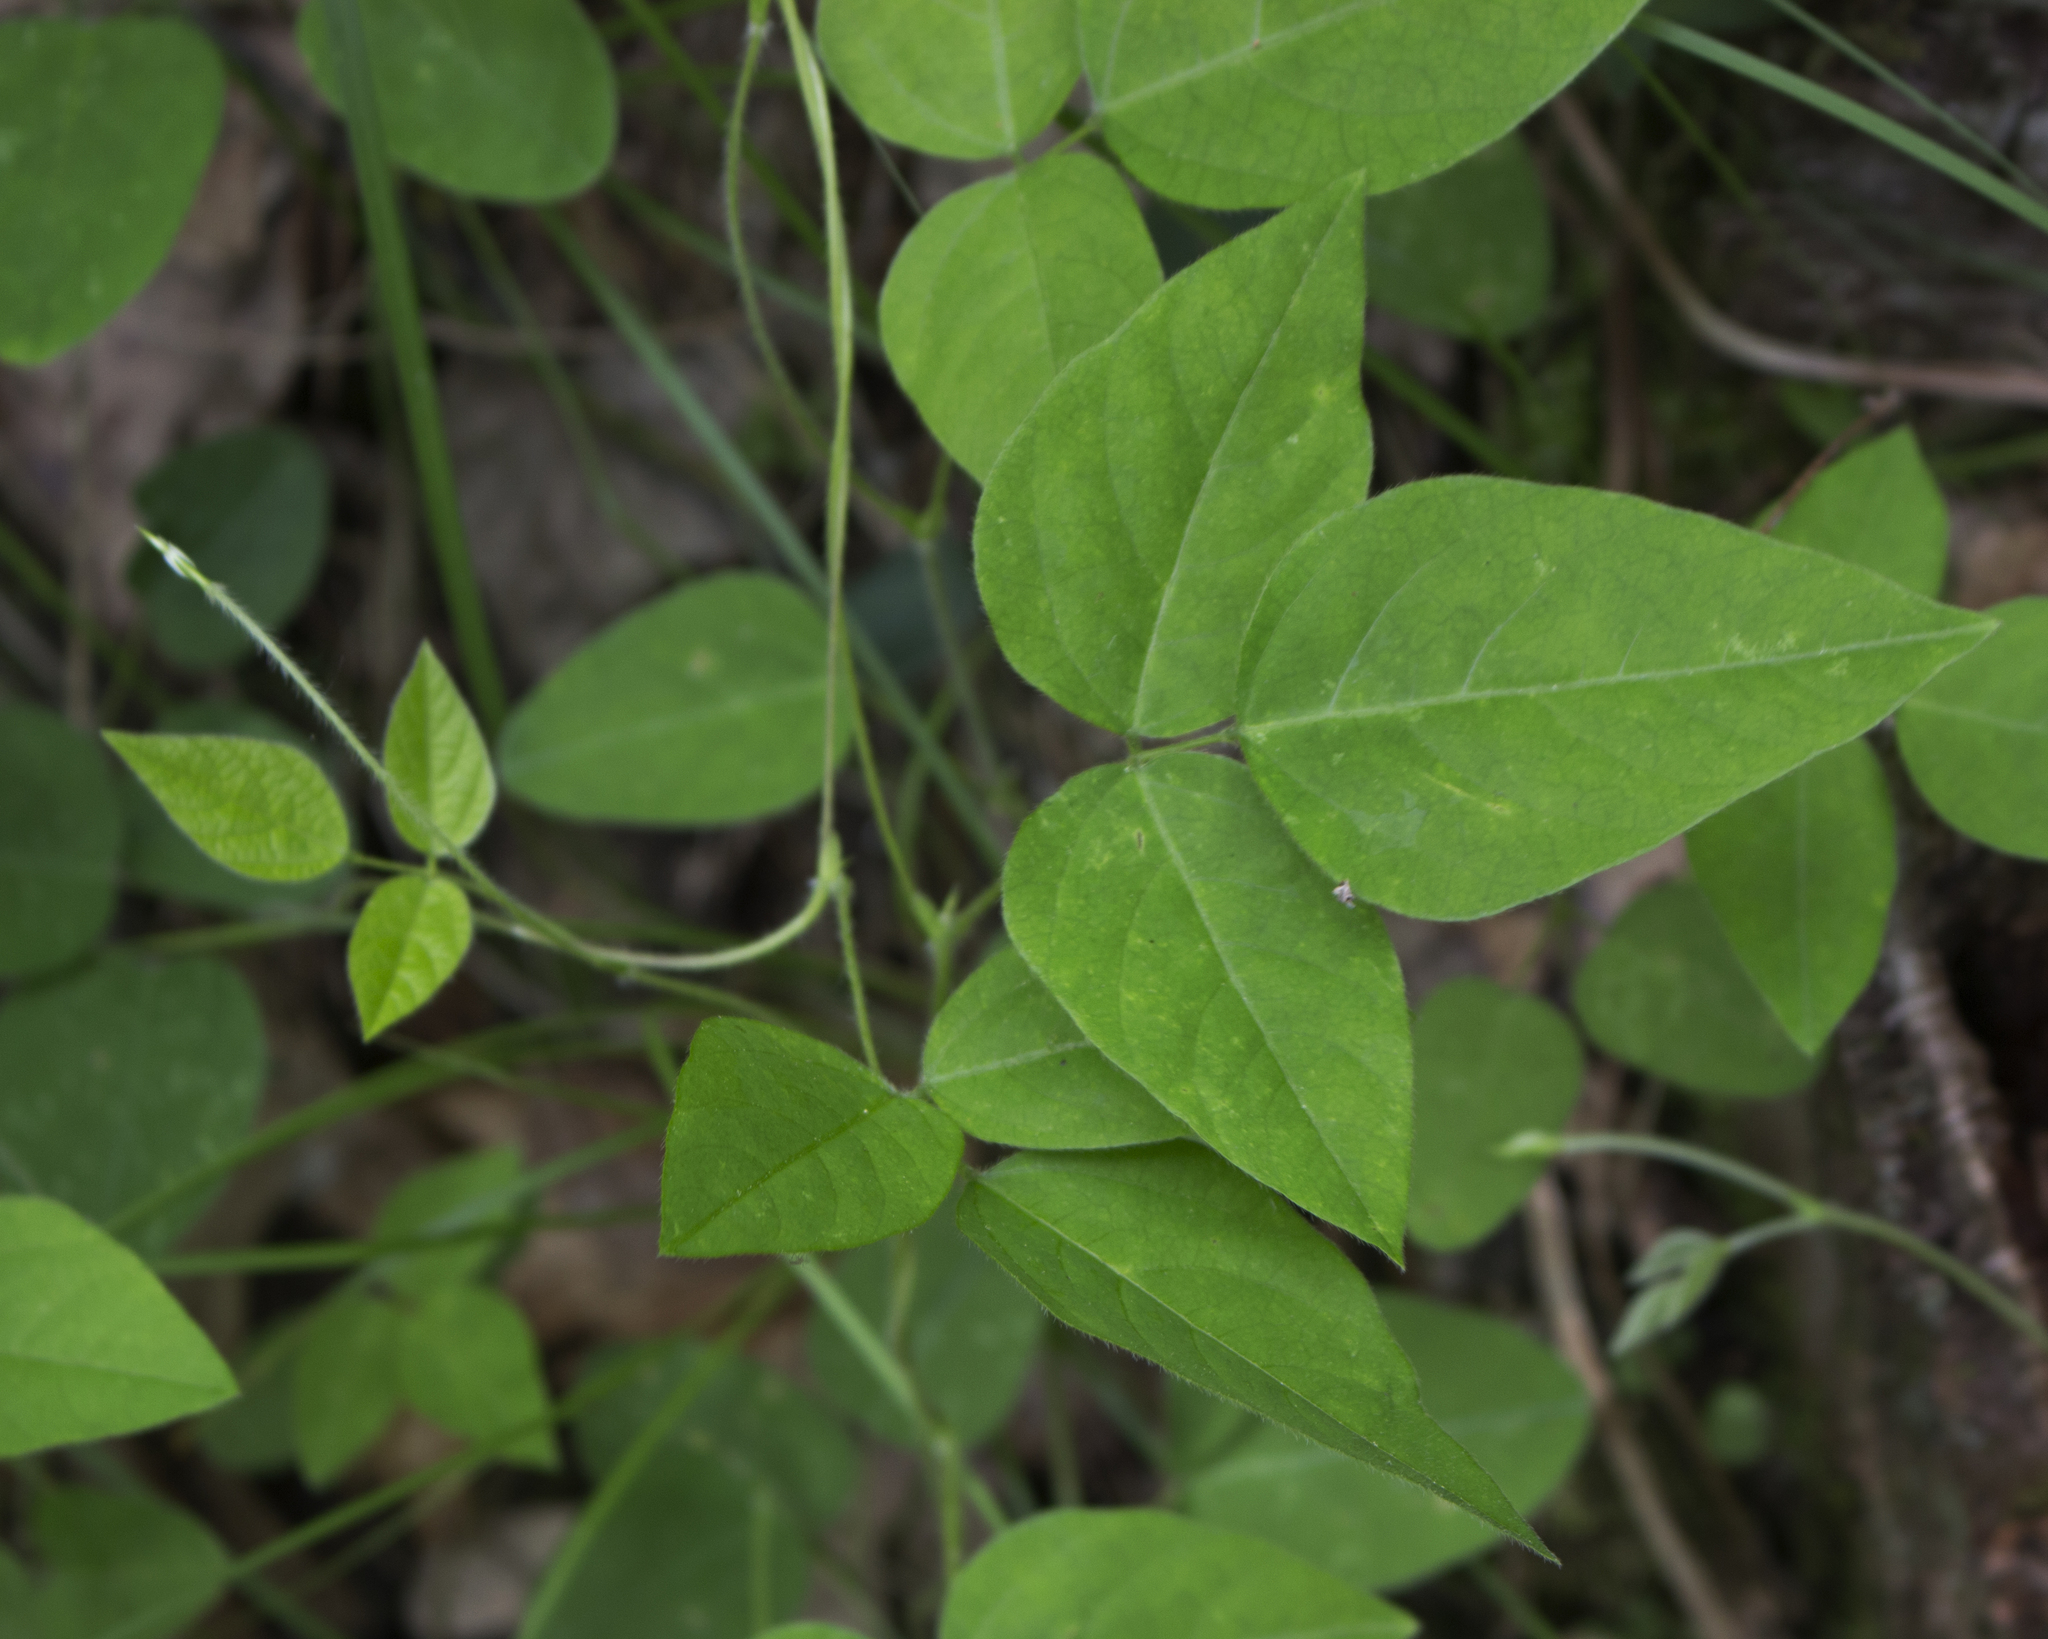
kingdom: Plantae
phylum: Tracheophyta
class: Magnoliopsida
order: Fabales
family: Fabaceae
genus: Amphicarpaea
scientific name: Amphicarpaea bracteata
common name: American hog peanut
